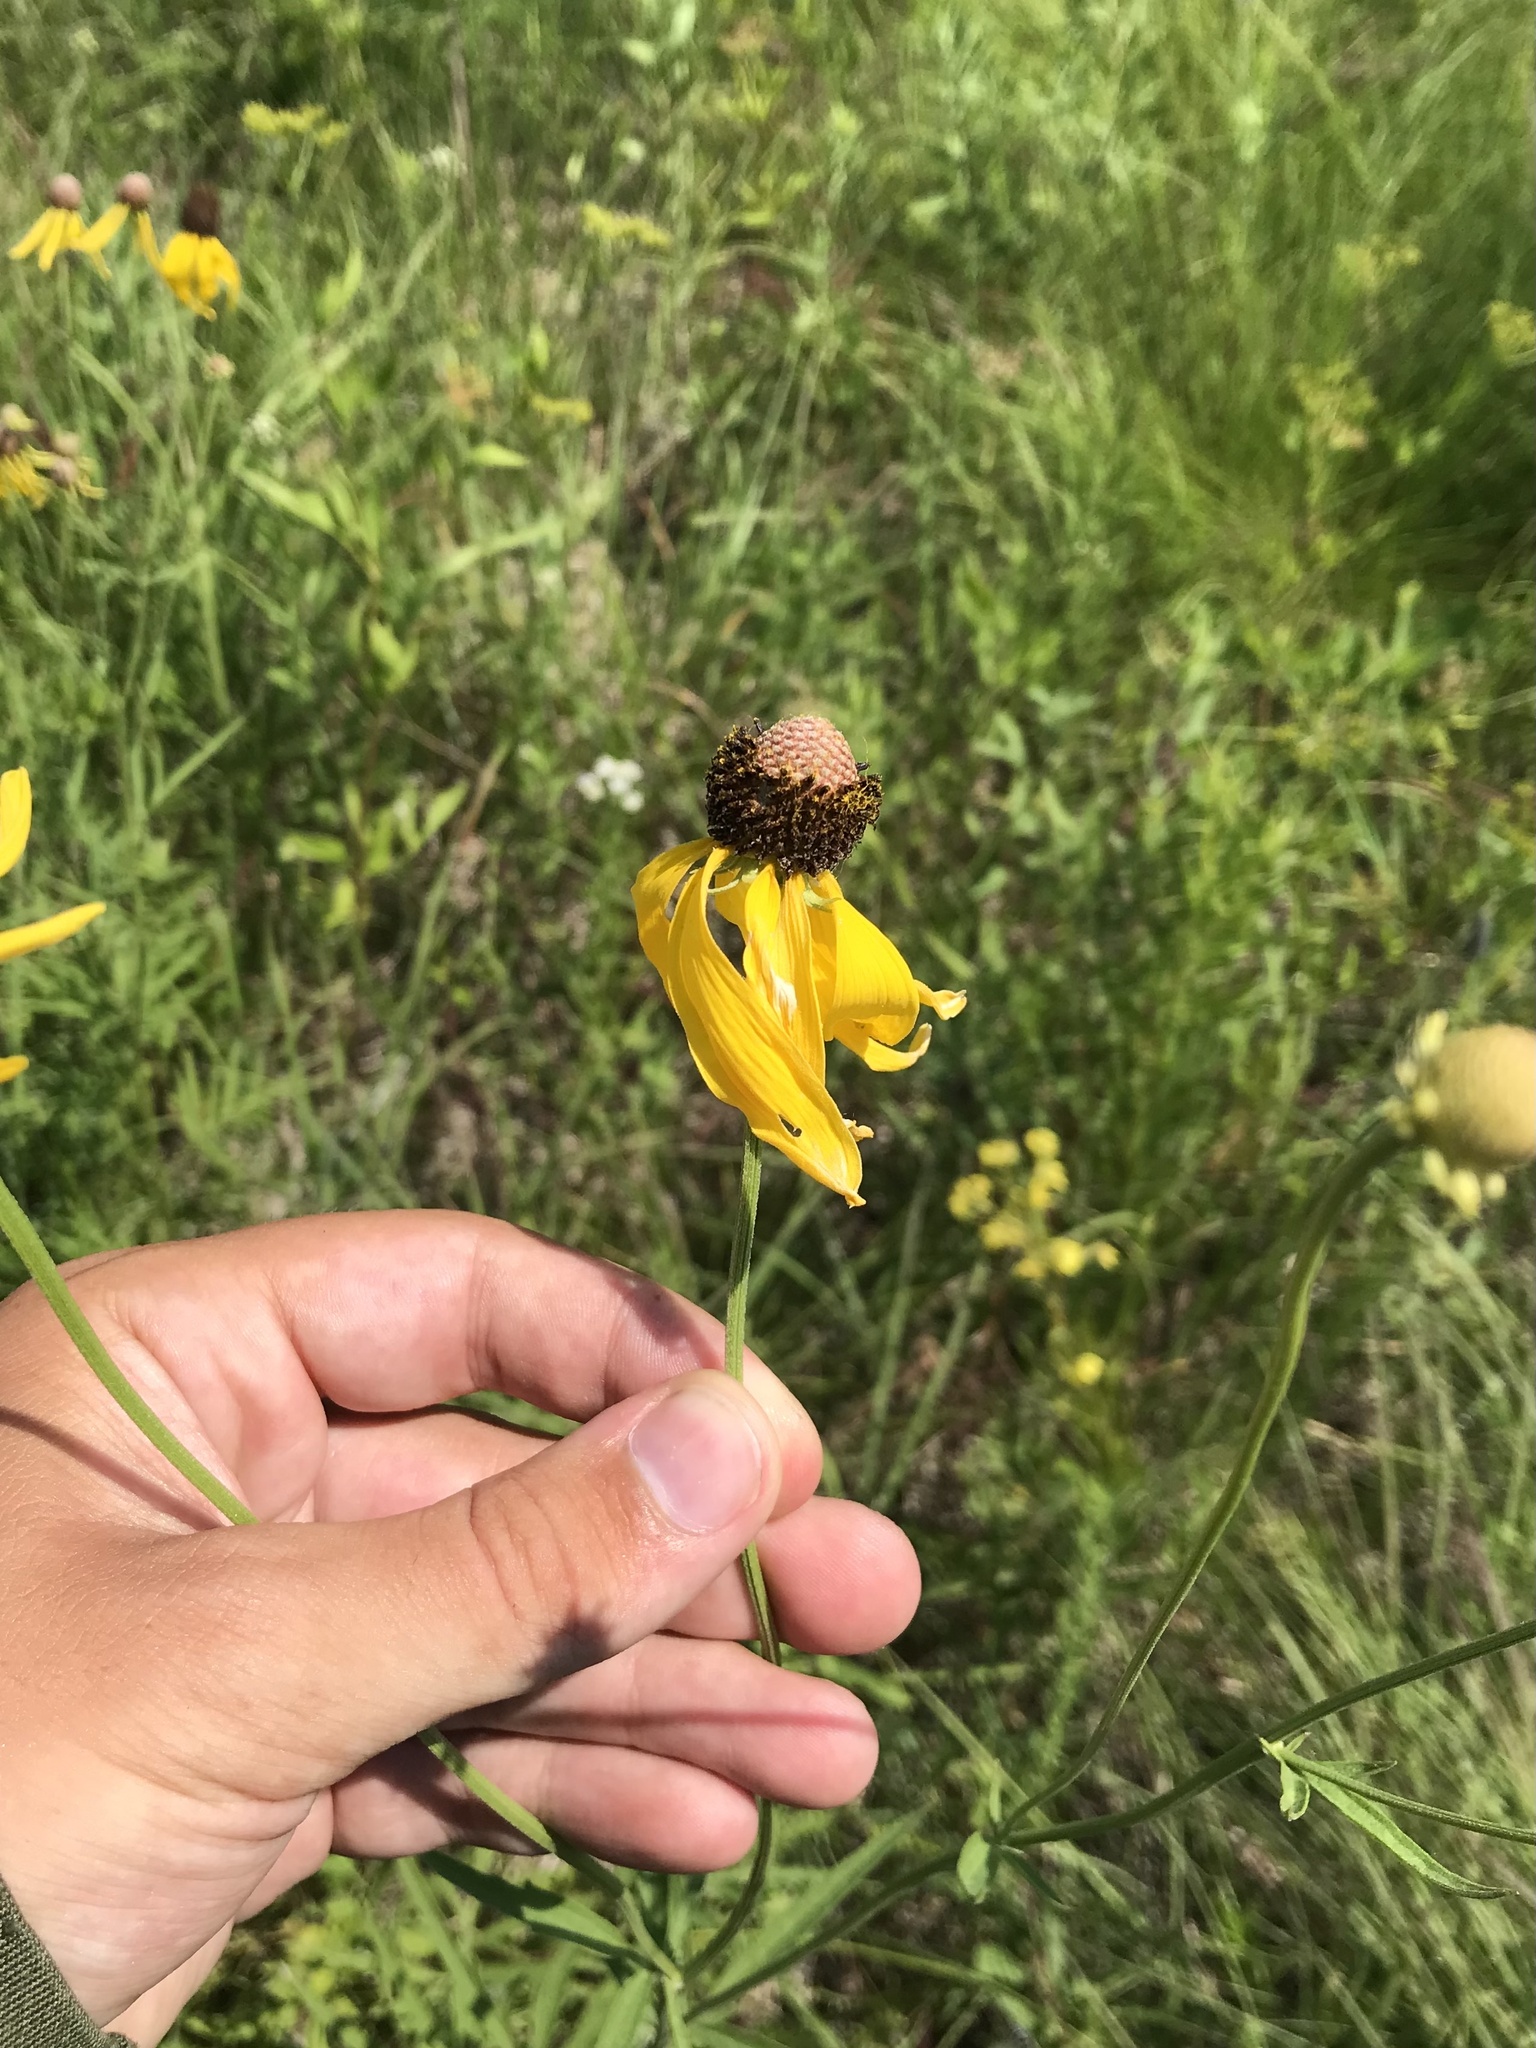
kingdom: Plantae
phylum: Tracheophyta
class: Magnoliopsida
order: Asterales
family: Asteraceae
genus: Ratibida
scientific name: Ratibida pinnata
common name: Drooping prairie-coneflower
